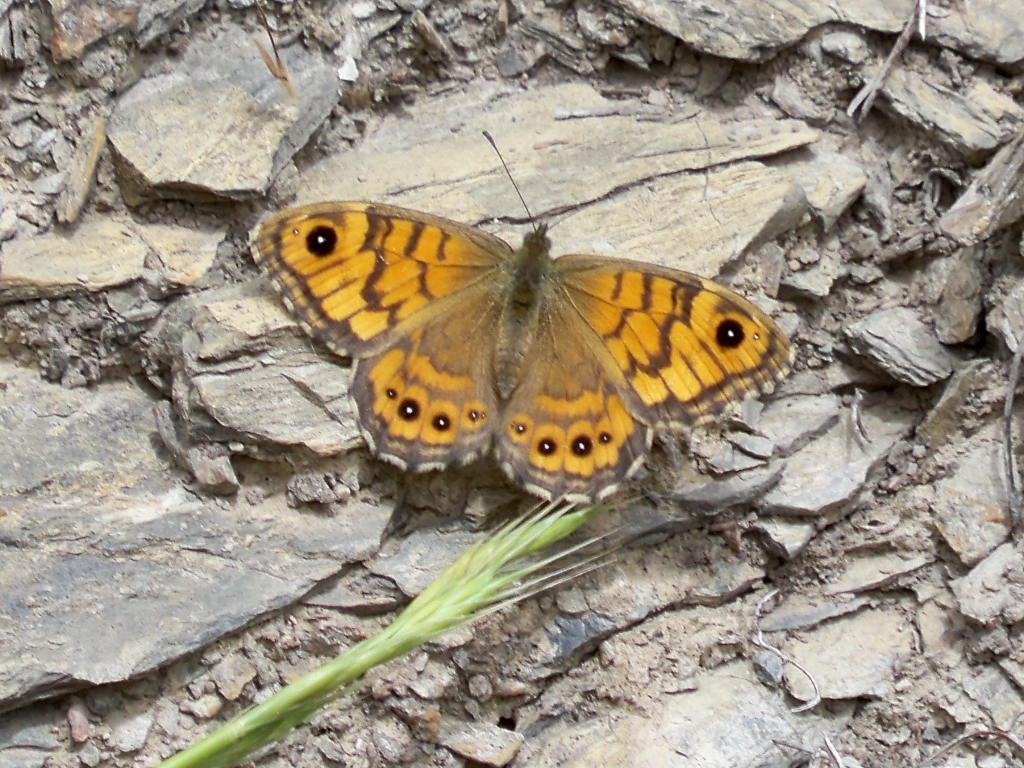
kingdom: Animalia
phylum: Arthropoda
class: Insecta
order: Lepidoptera
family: Nymphalidae
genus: Pararge
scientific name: Pararge Lasiommata megera
